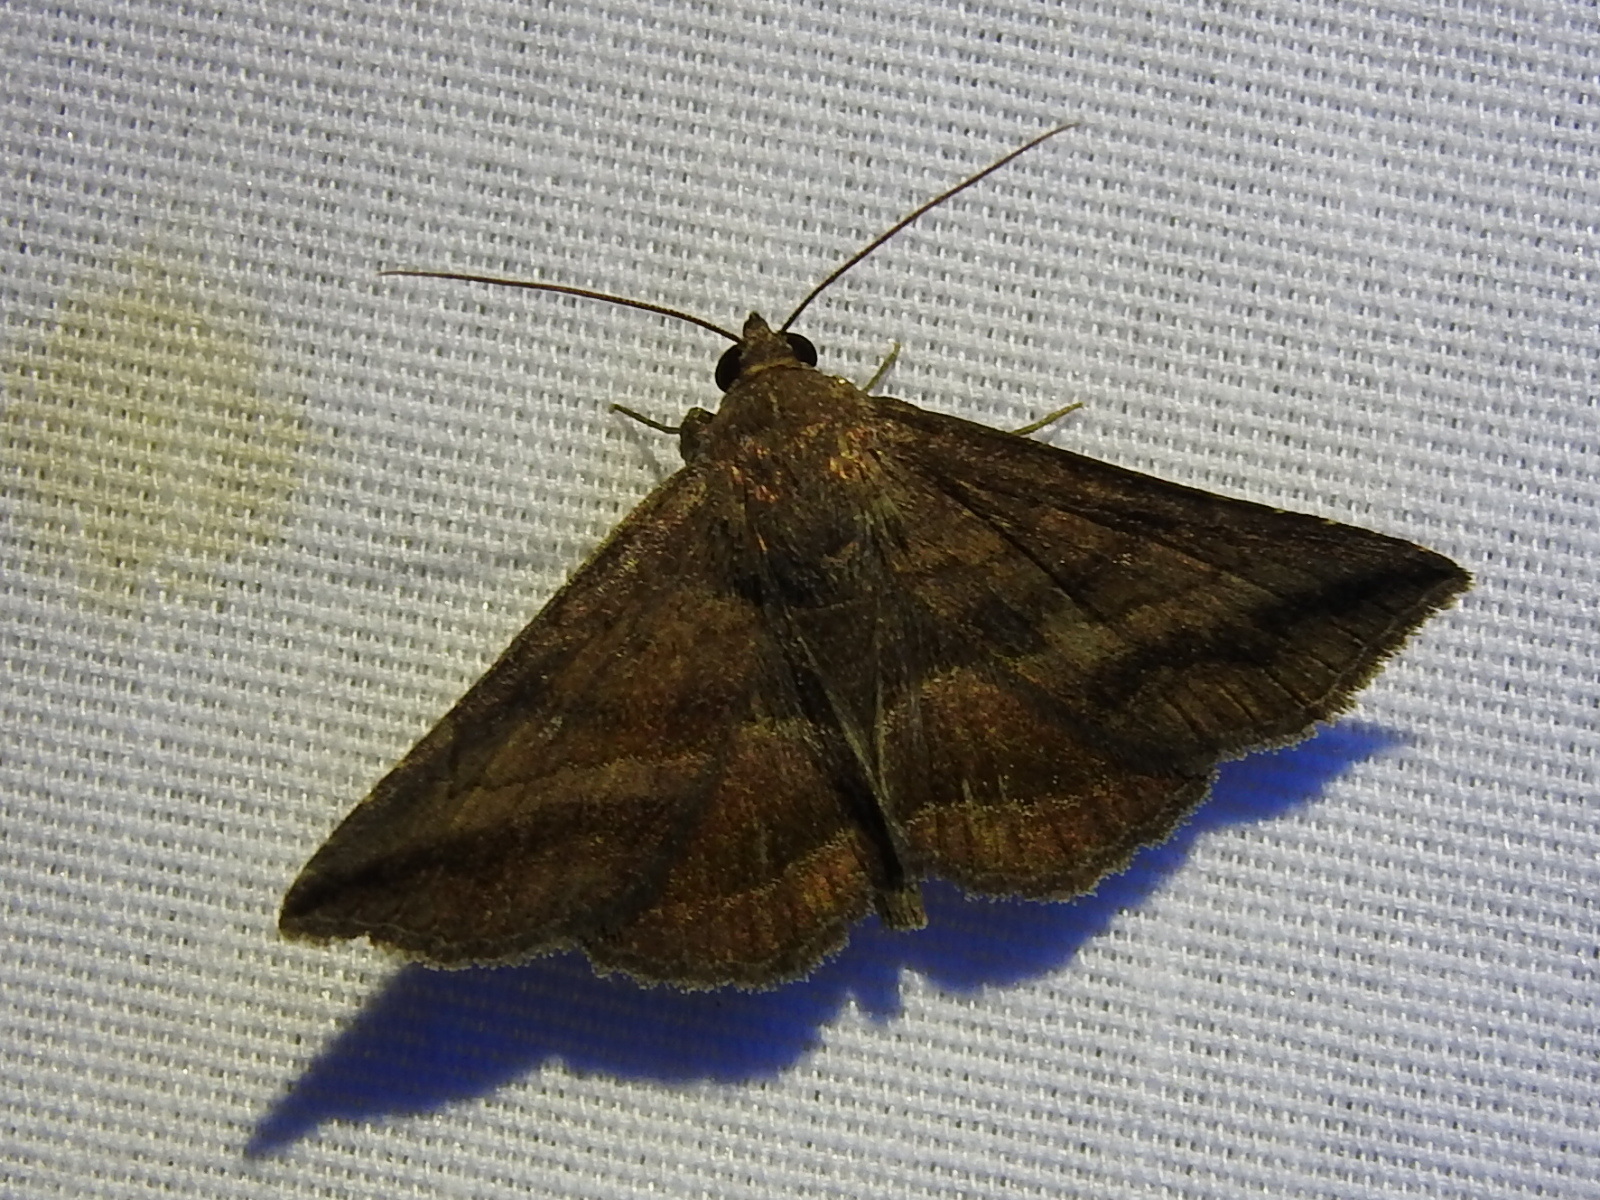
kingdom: Animalia
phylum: Arthropoda
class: Insecta
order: Lepidoptera
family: Erebidae
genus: Lesmone
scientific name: Lesmone detrahens
